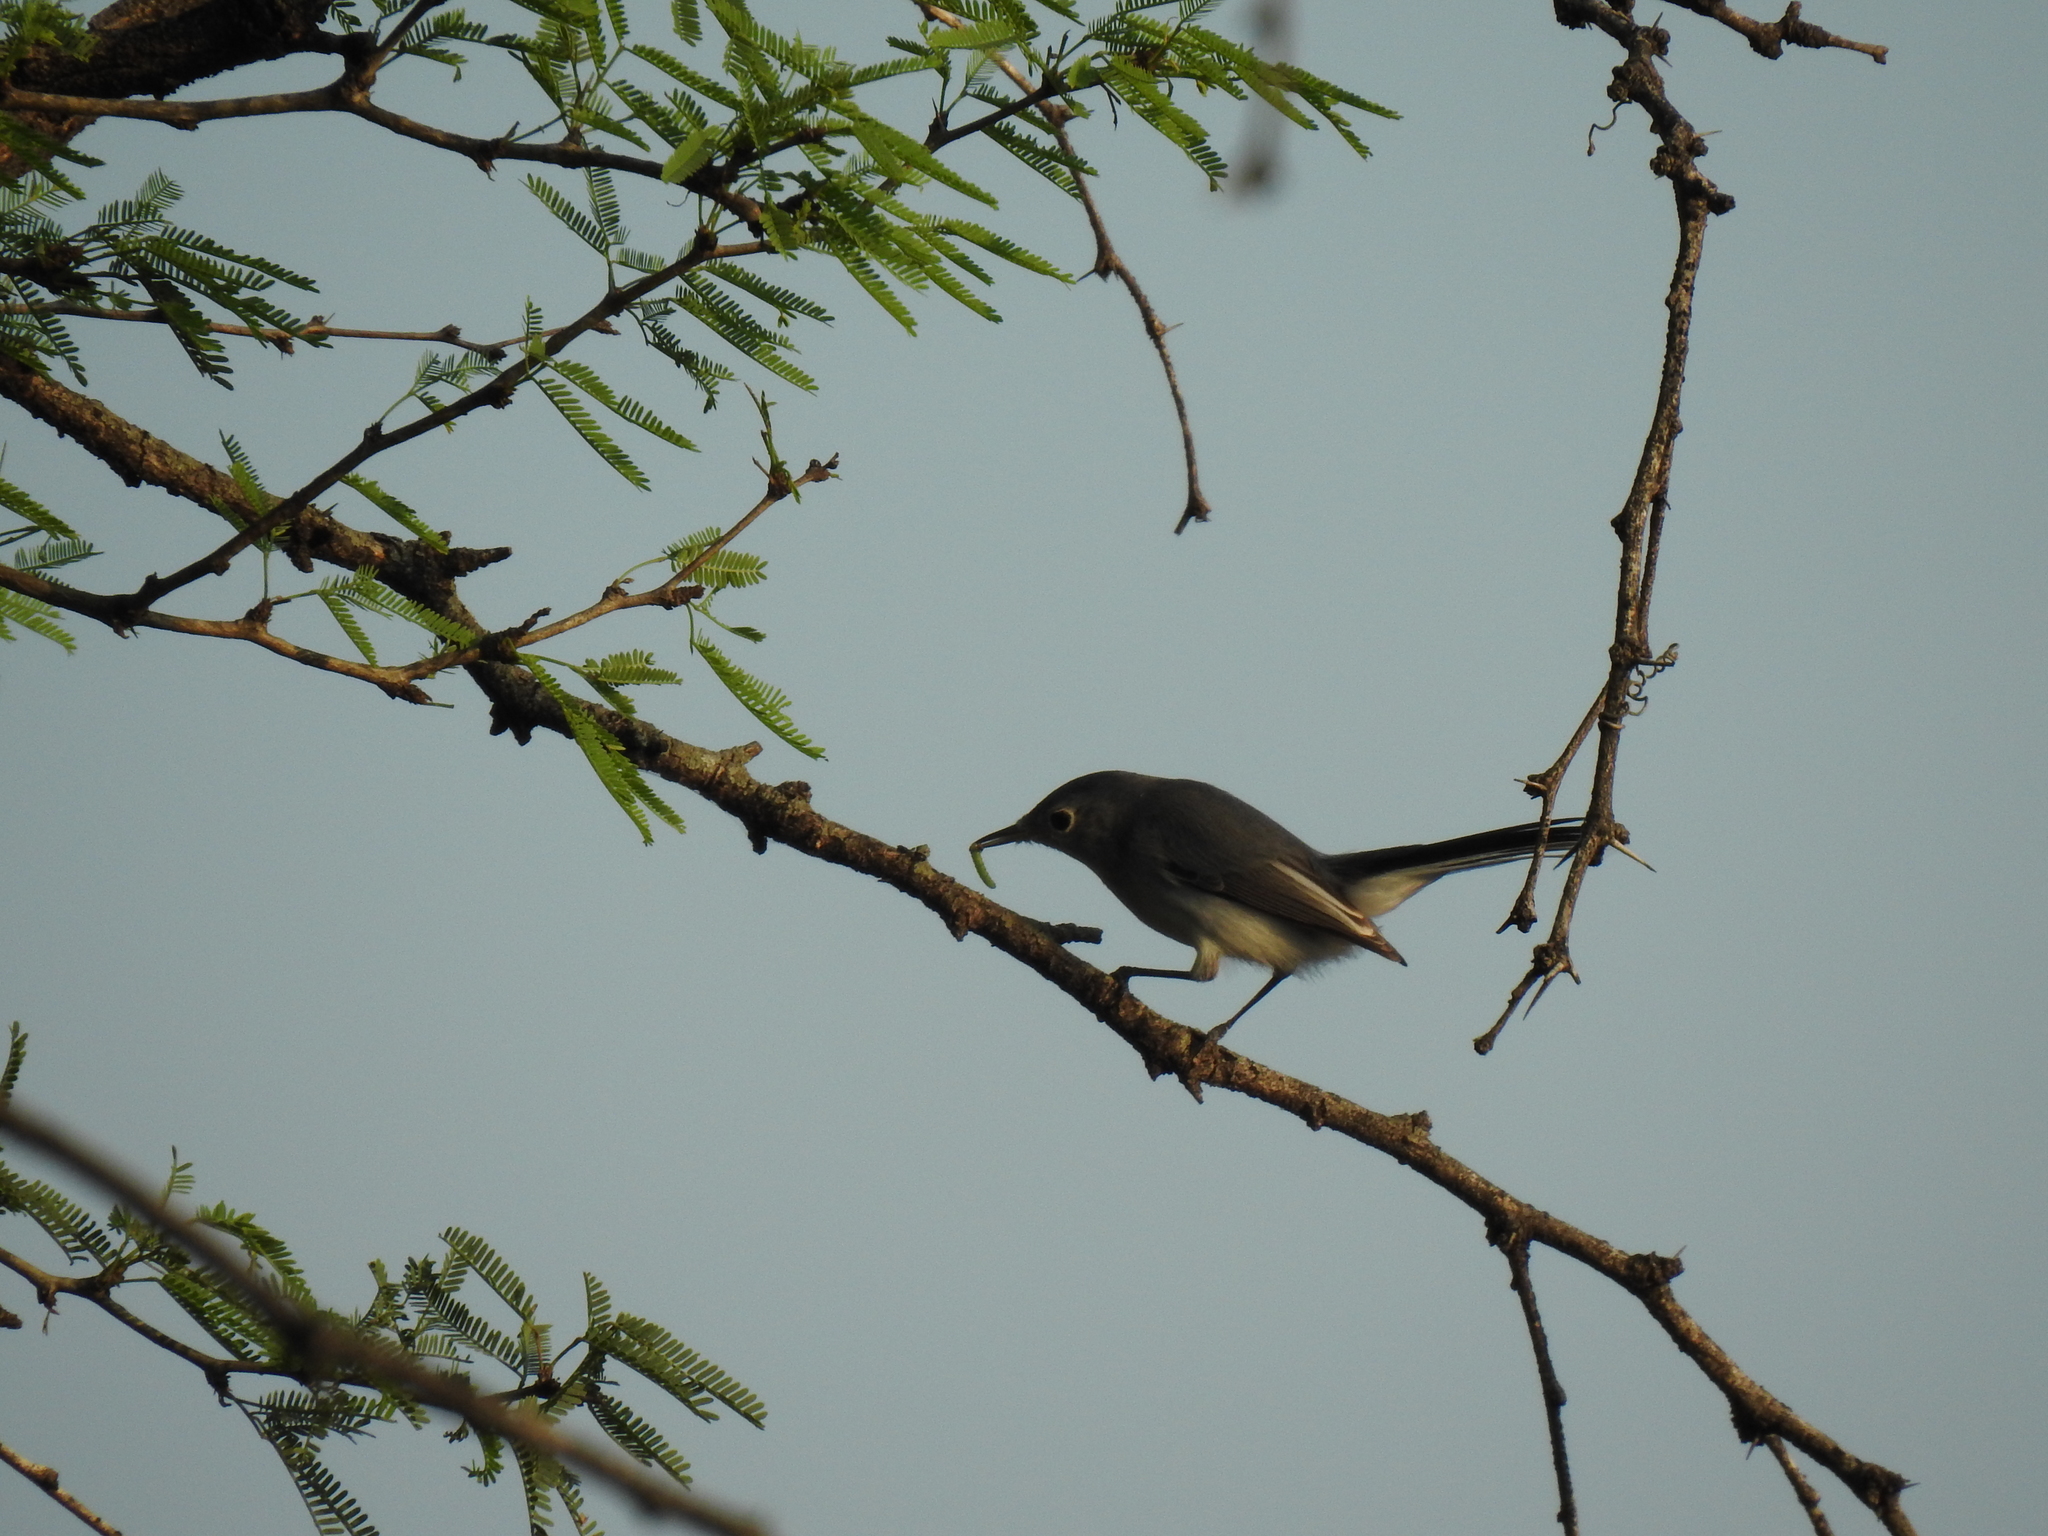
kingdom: Animalia
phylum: Chordata
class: Aves
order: Passeriformes
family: Polioptilidae
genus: Polioptila
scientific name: Polioptila caerulea
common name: Blue-gray gnatcatcher
